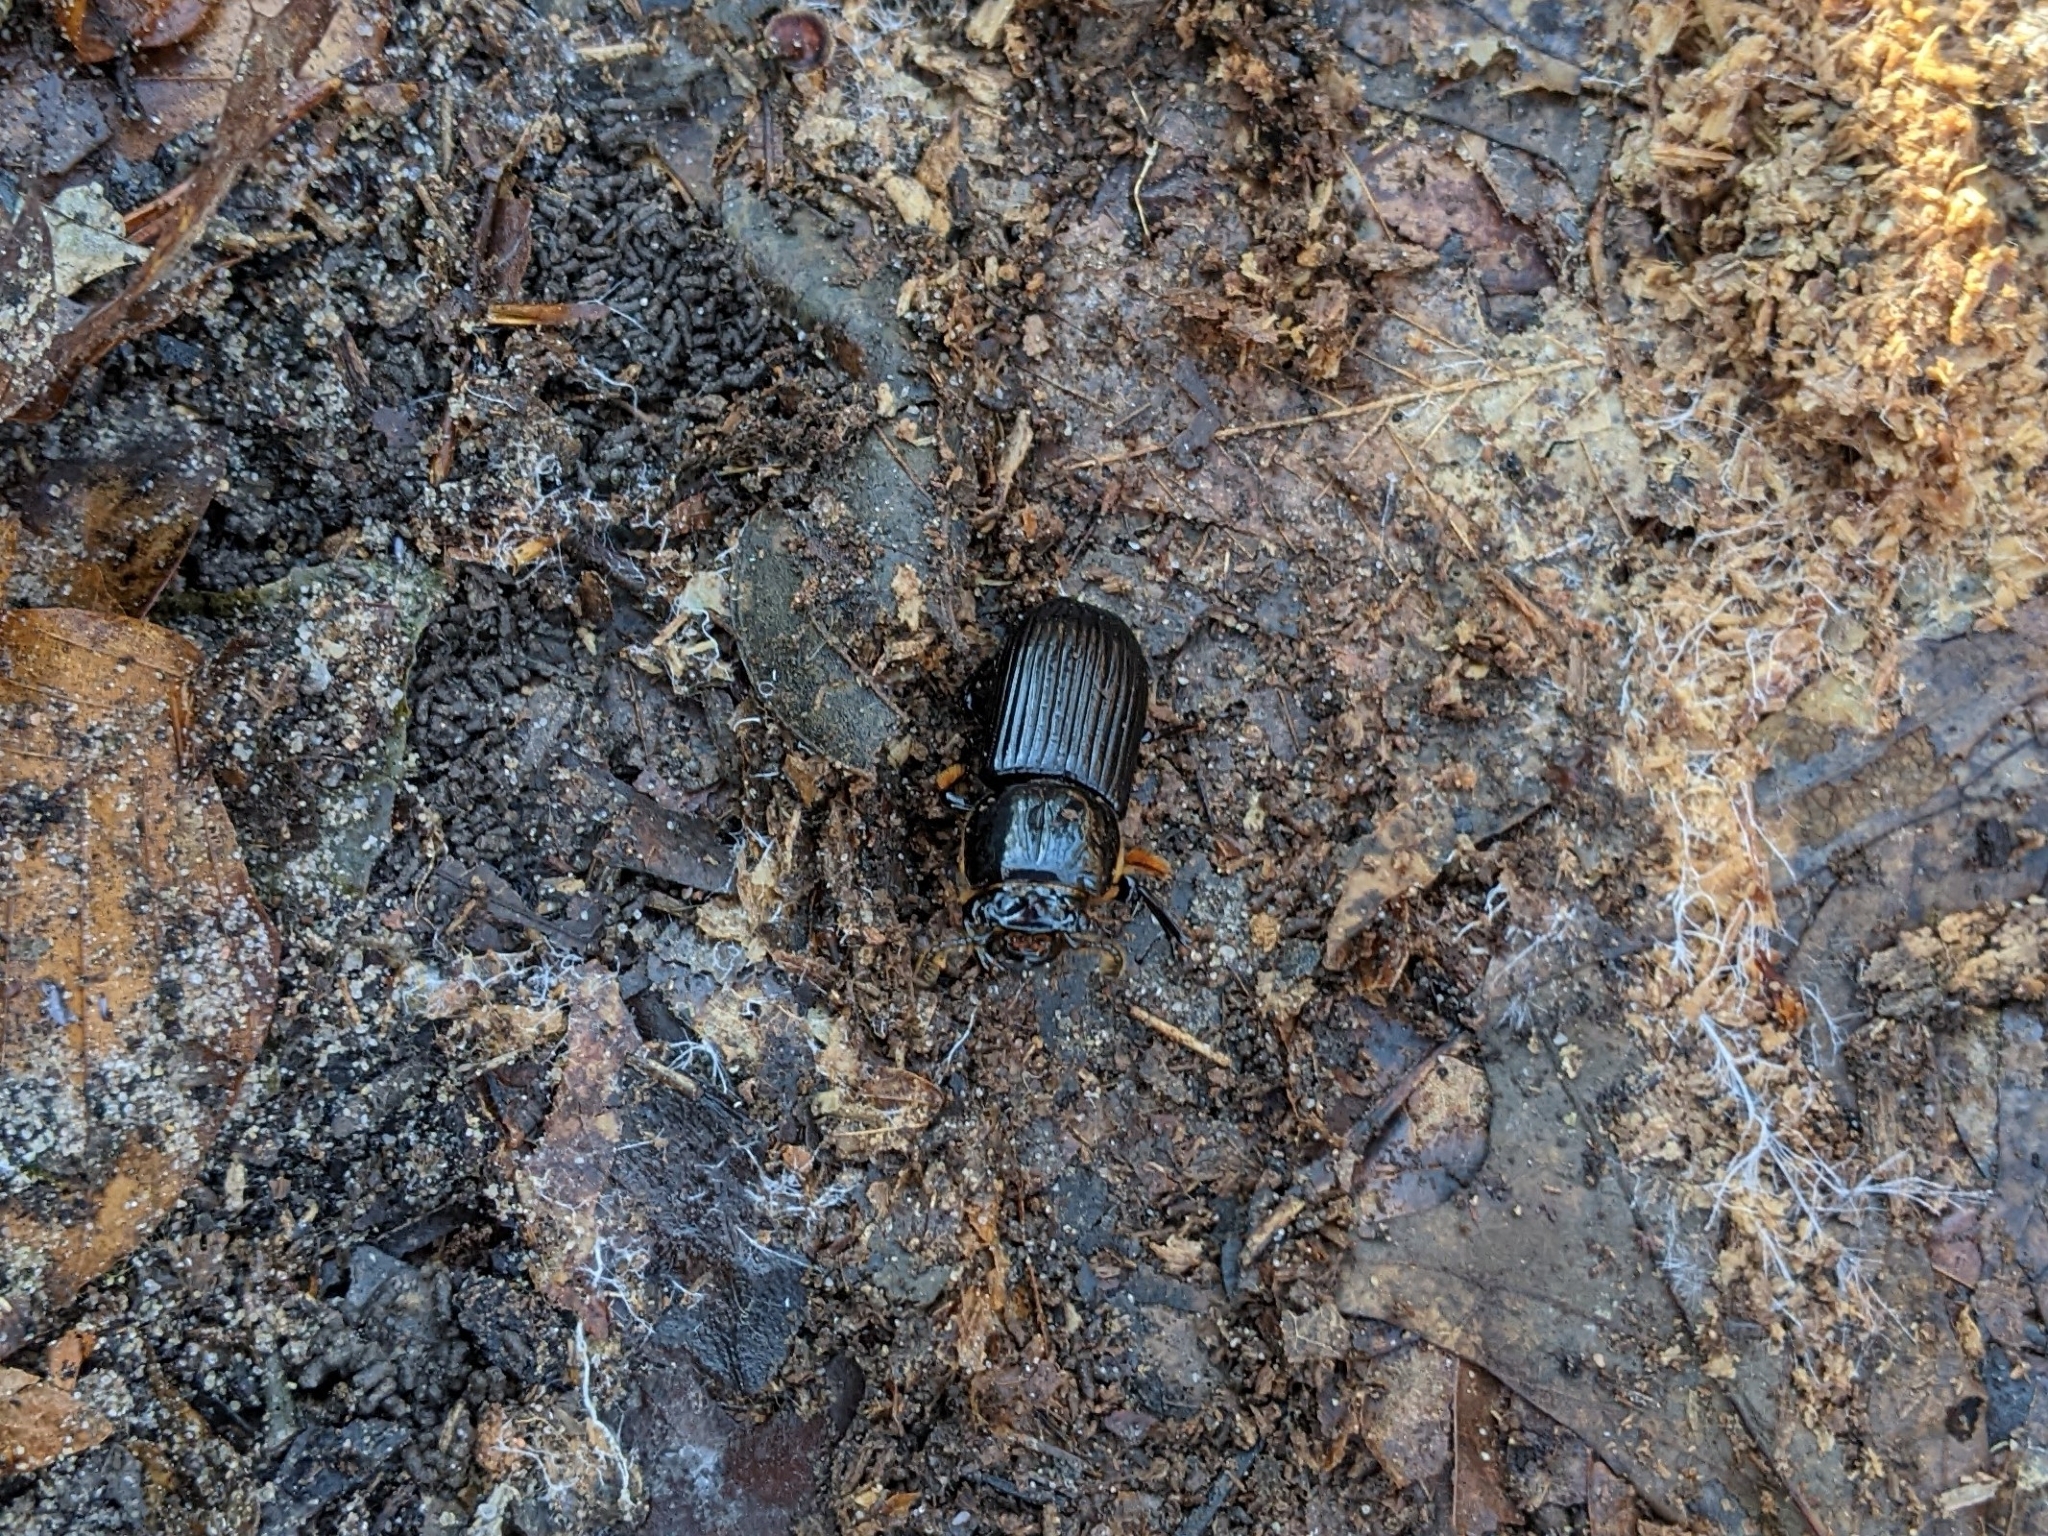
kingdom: Animalia
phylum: Arthropoda
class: Insecta
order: Coleoptera
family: Passalidae
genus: Odontotaenius
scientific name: Odontotaenius disjunctus
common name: Patent leather beetle
